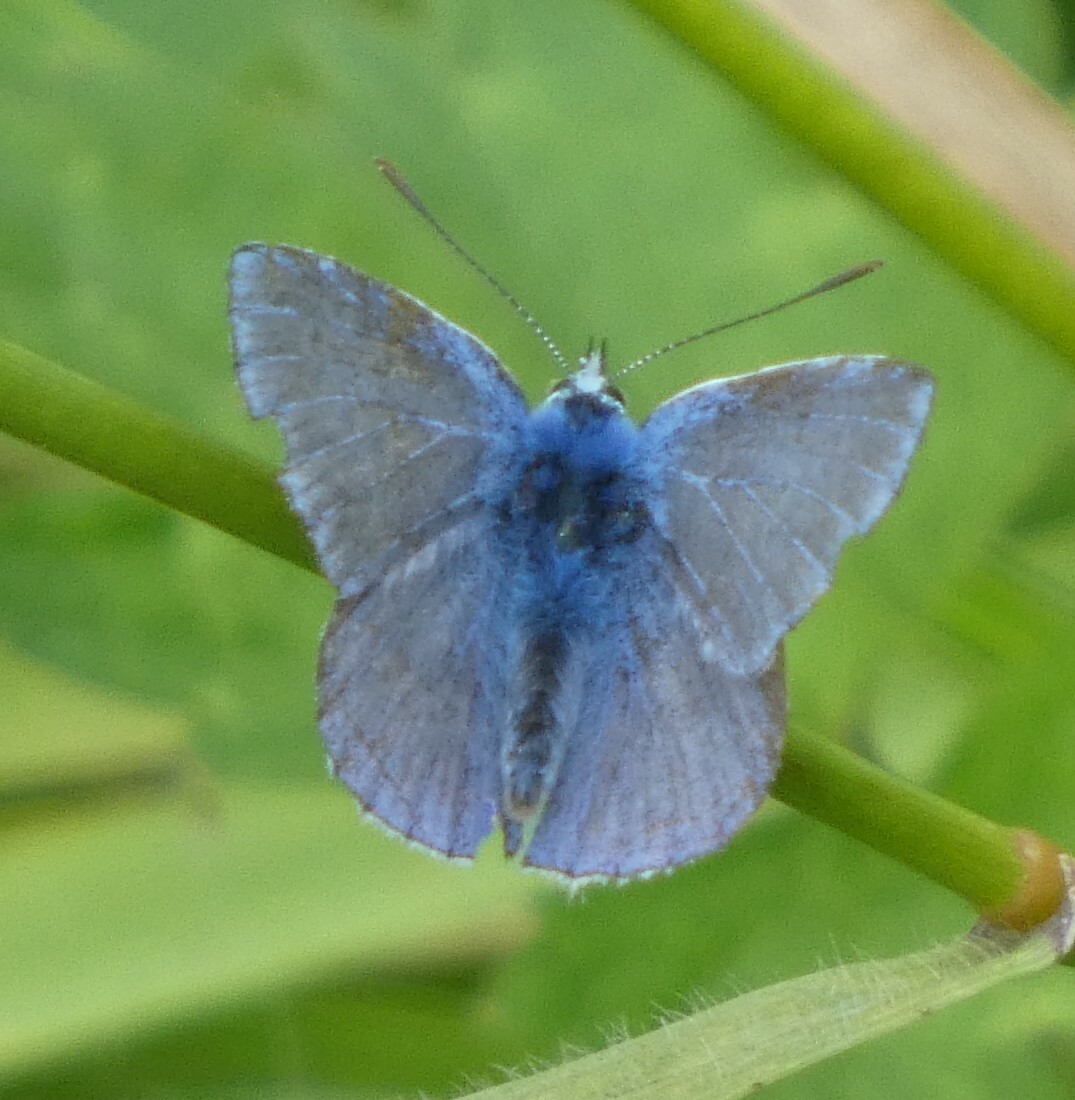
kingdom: Animalia
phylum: Arthropoda
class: Insecta
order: Lepidoptera
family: Lycaenidae
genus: Polyommatus
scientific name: Polyommatus icarus
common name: Common blue
